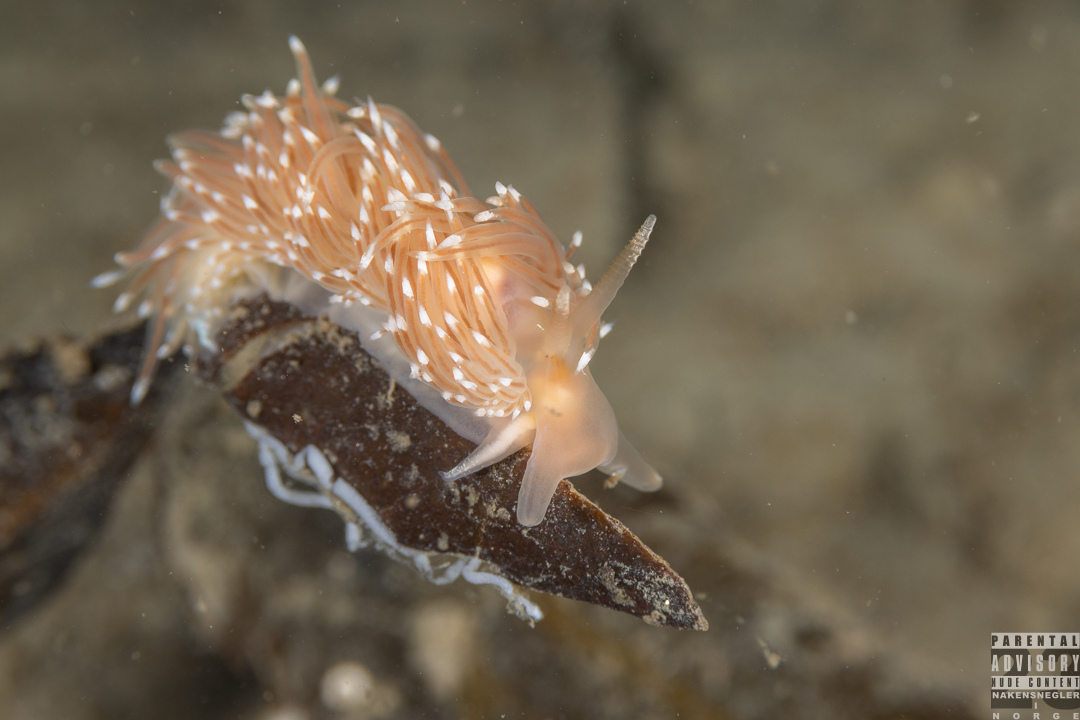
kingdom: Animalia
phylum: Mollusca
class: Gastropoda
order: Nudibranchia
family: Facelinidae
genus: Facelina
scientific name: Facelina bostoniensis
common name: Boston facelina
